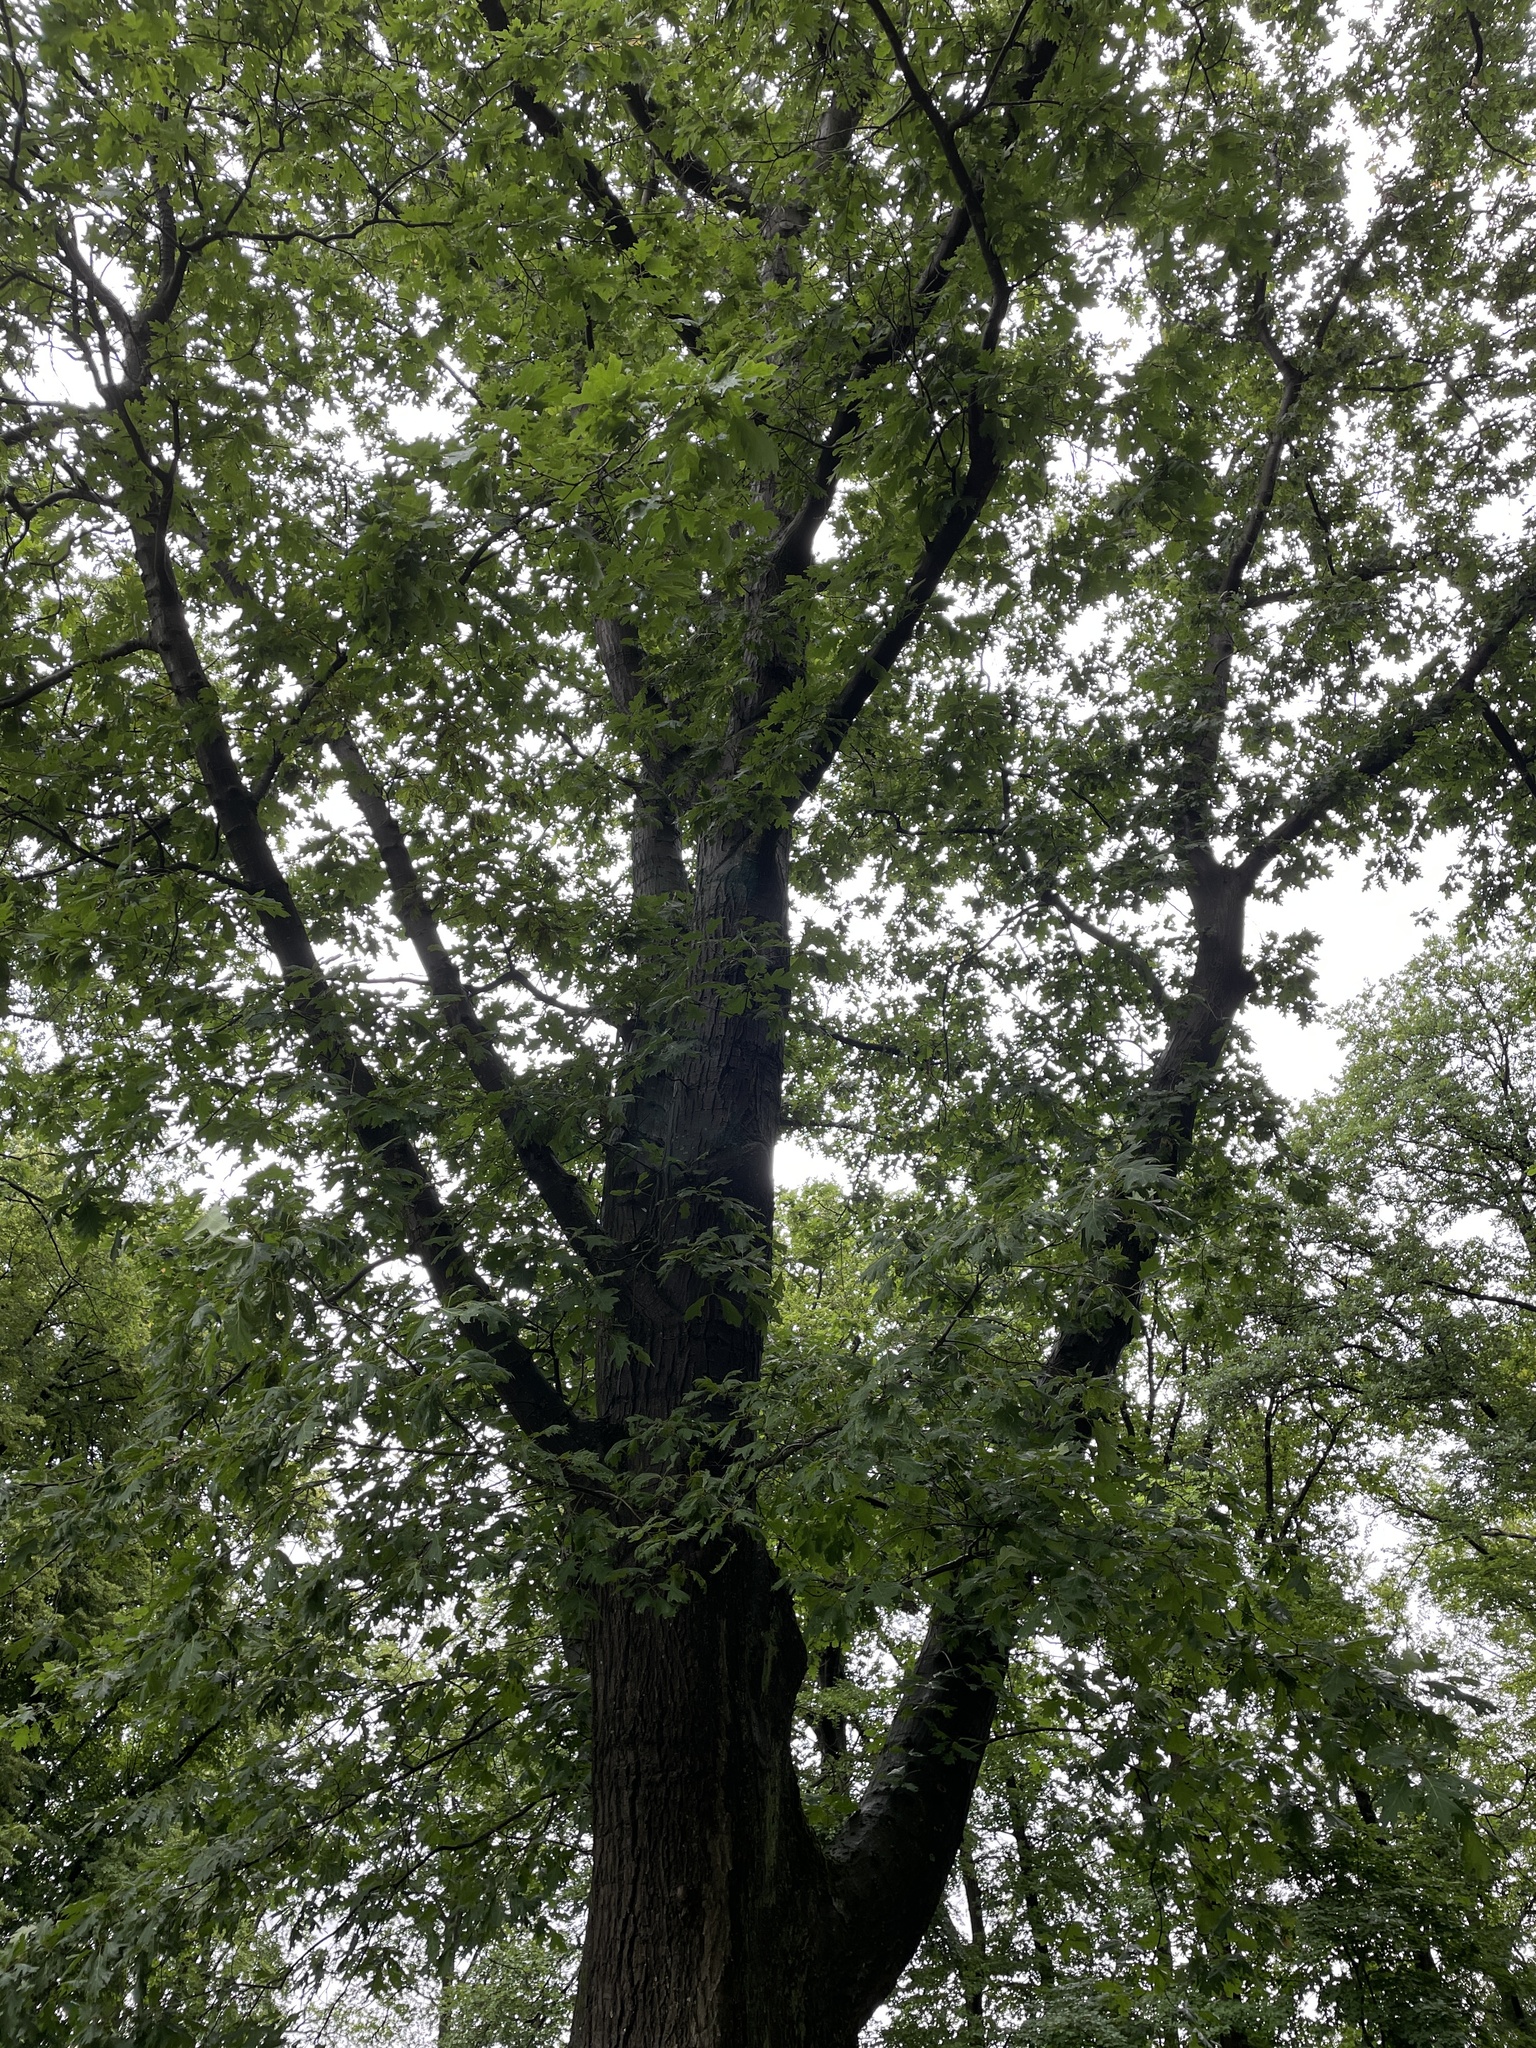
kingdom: Plantae
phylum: Tracheophyta
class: Magnoliopsida
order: Fagales
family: Fagaceae
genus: Quercus
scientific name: Quercus rubra
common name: Red oak
